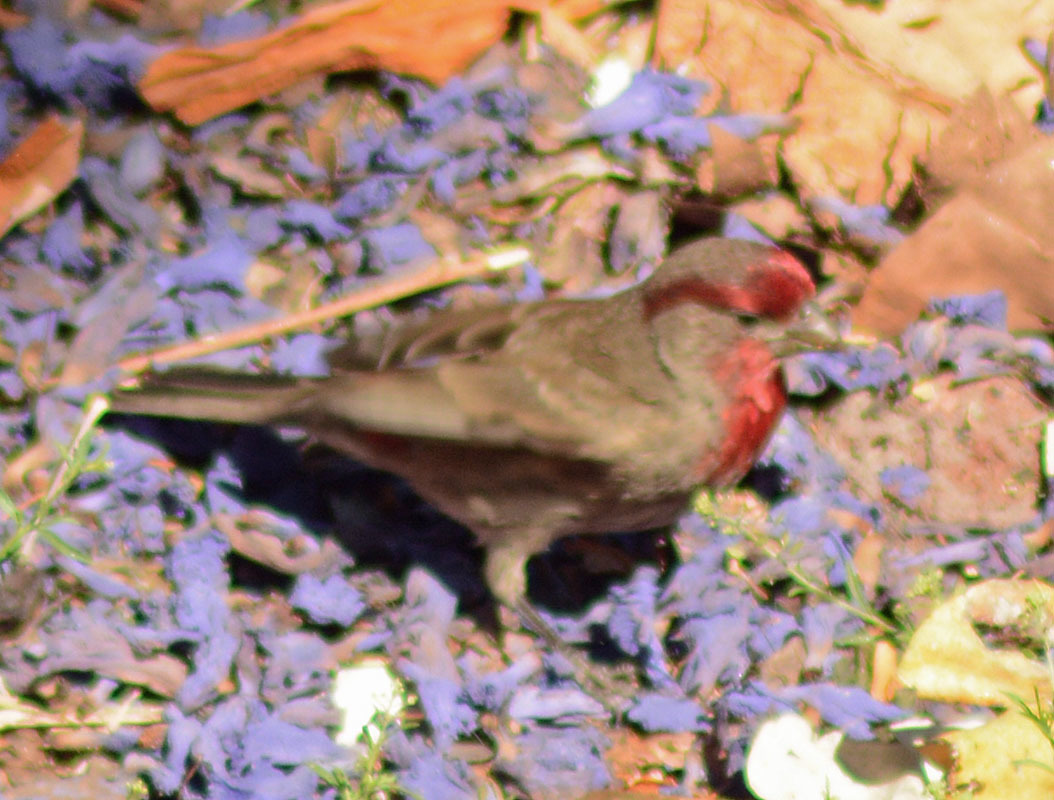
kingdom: Animalia
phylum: Chordata
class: Aves
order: Passeriformes
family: Fringillidae
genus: Haemorhous
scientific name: Haemorhous mexicanus
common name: House finch
